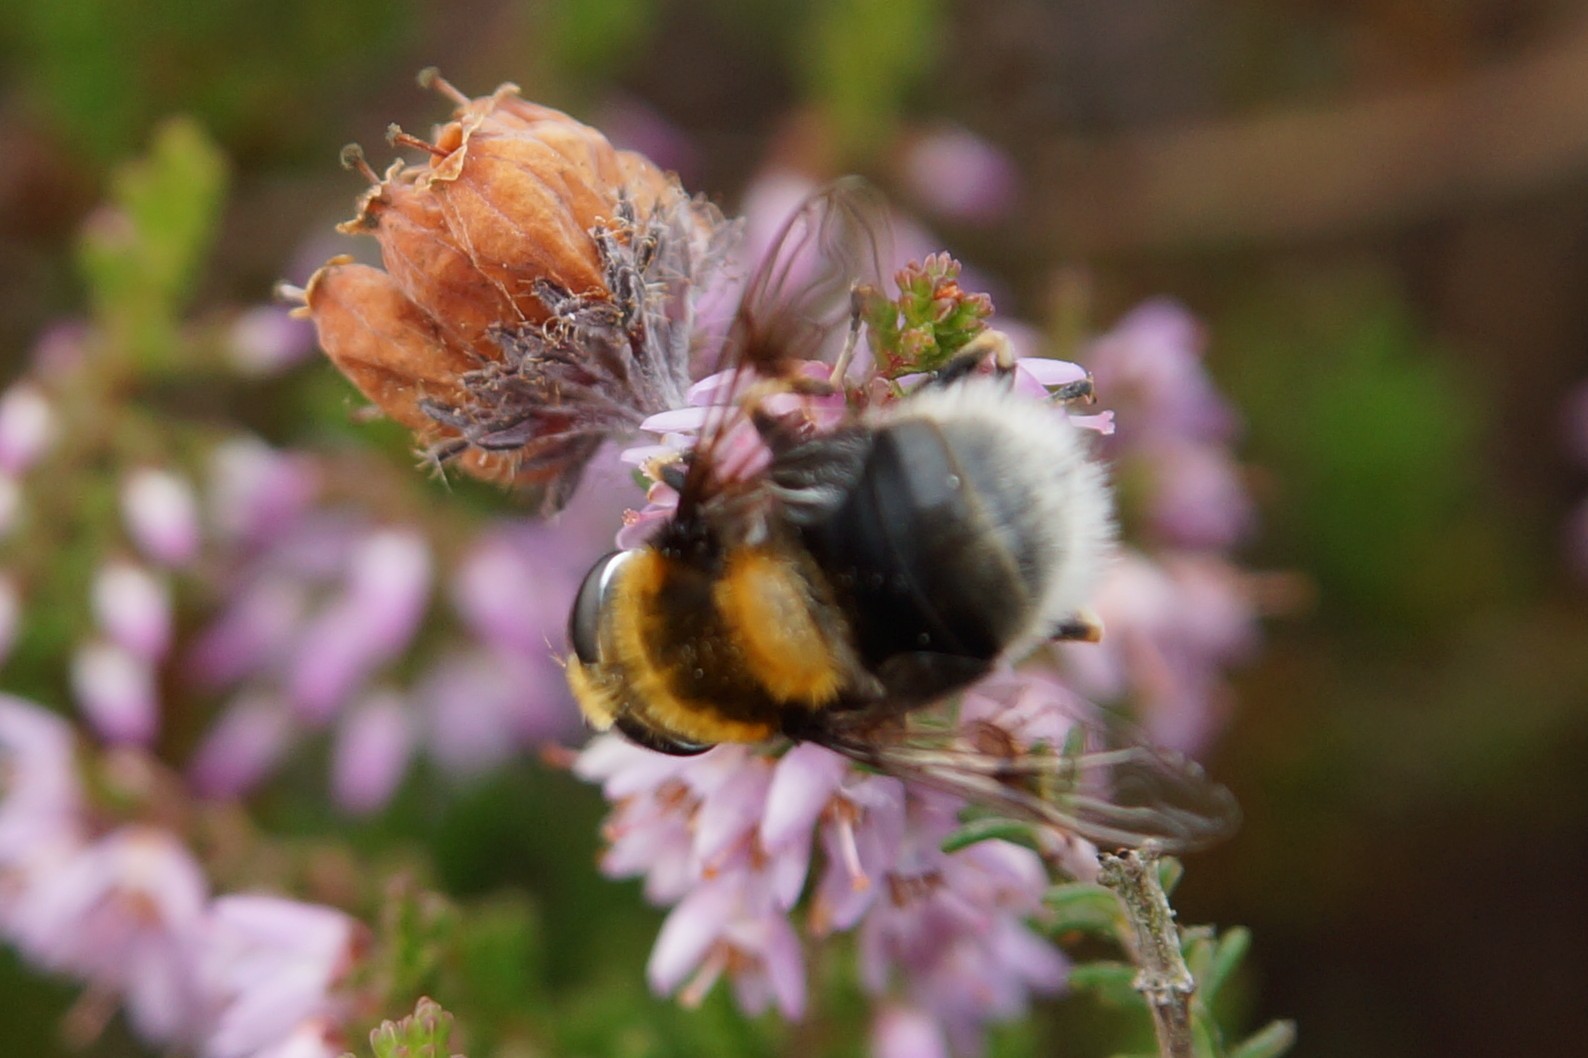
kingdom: Animalia
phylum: Arthropoda
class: Insecta
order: Diptera
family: Syrphidae
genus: Eristalis
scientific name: Eristalis intricaria
